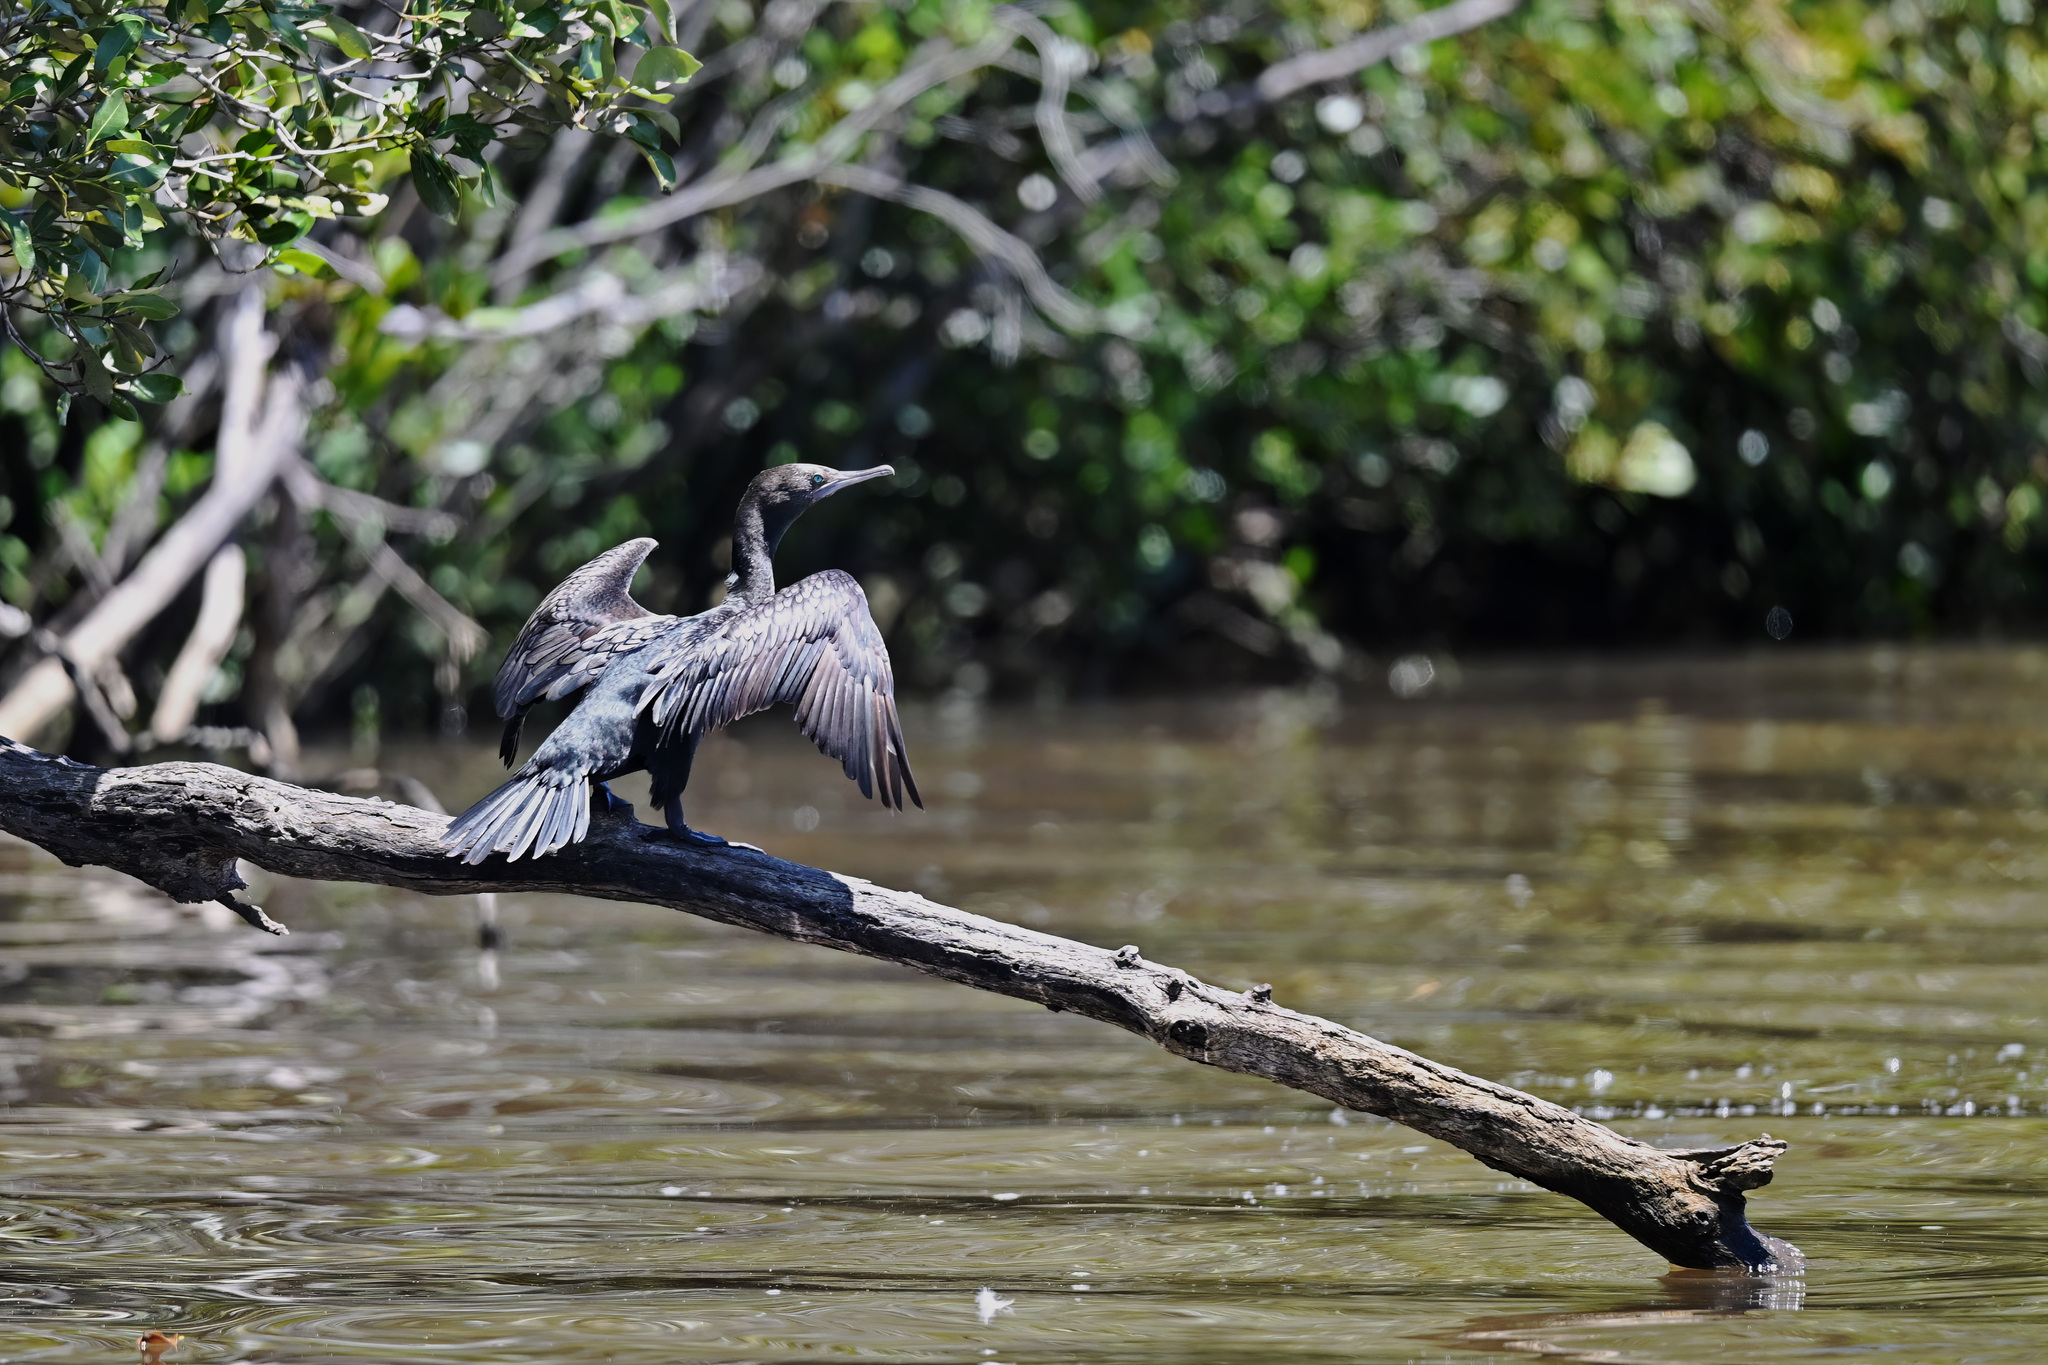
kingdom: Animalia
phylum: Chordata
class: Aves
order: Suliformes
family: Phalacrocoracidae
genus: Phalacrocorax
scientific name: Phalacrocorax sulcirostris
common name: Little black cormorant
